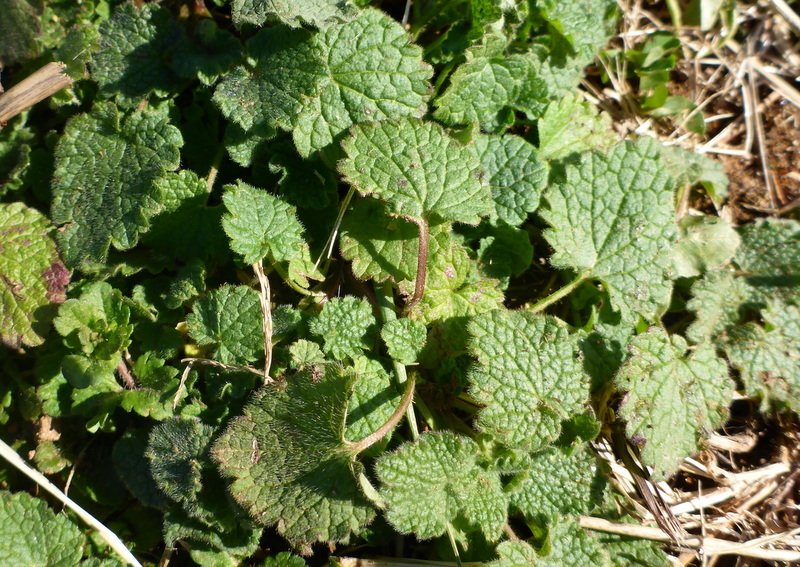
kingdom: Plantae
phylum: Tracheophyta
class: Magnoliopsida
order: Lamiales
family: Plantaginaceae
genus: Veronica
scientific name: Veronica persica
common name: Common field-speedwell
